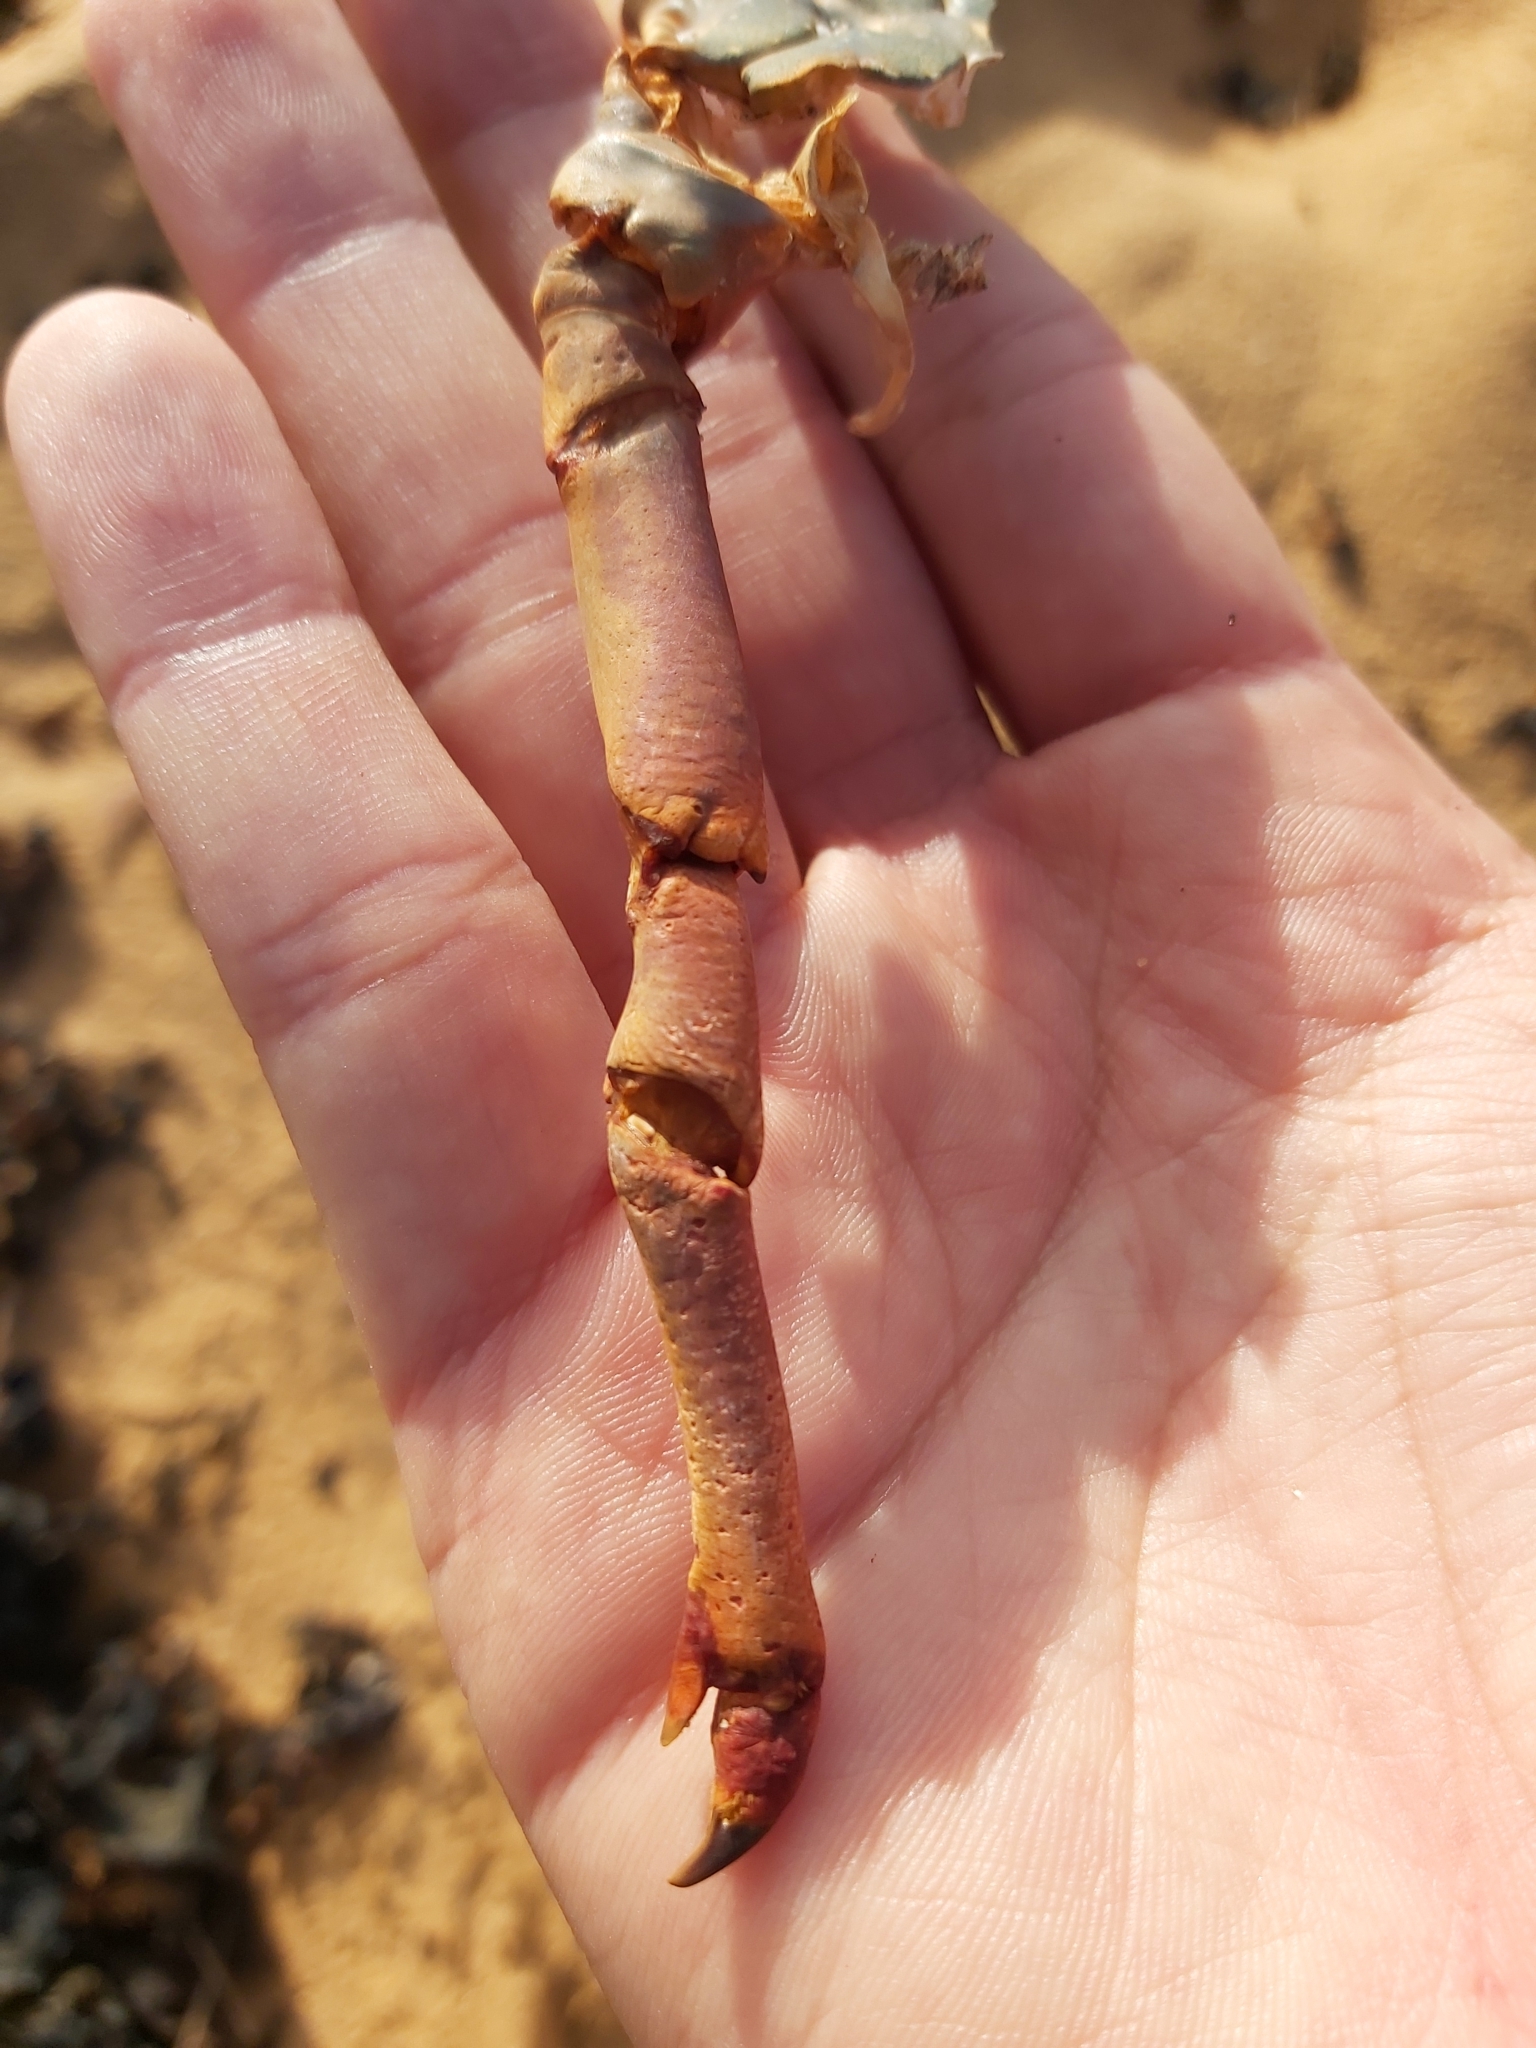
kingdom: Animalia
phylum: Arthropoda
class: Malacostraca
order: Decapoda
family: Palinuridae
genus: Sagmariasus
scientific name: Sagmariasus verreauxi
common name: Green rock lobster
